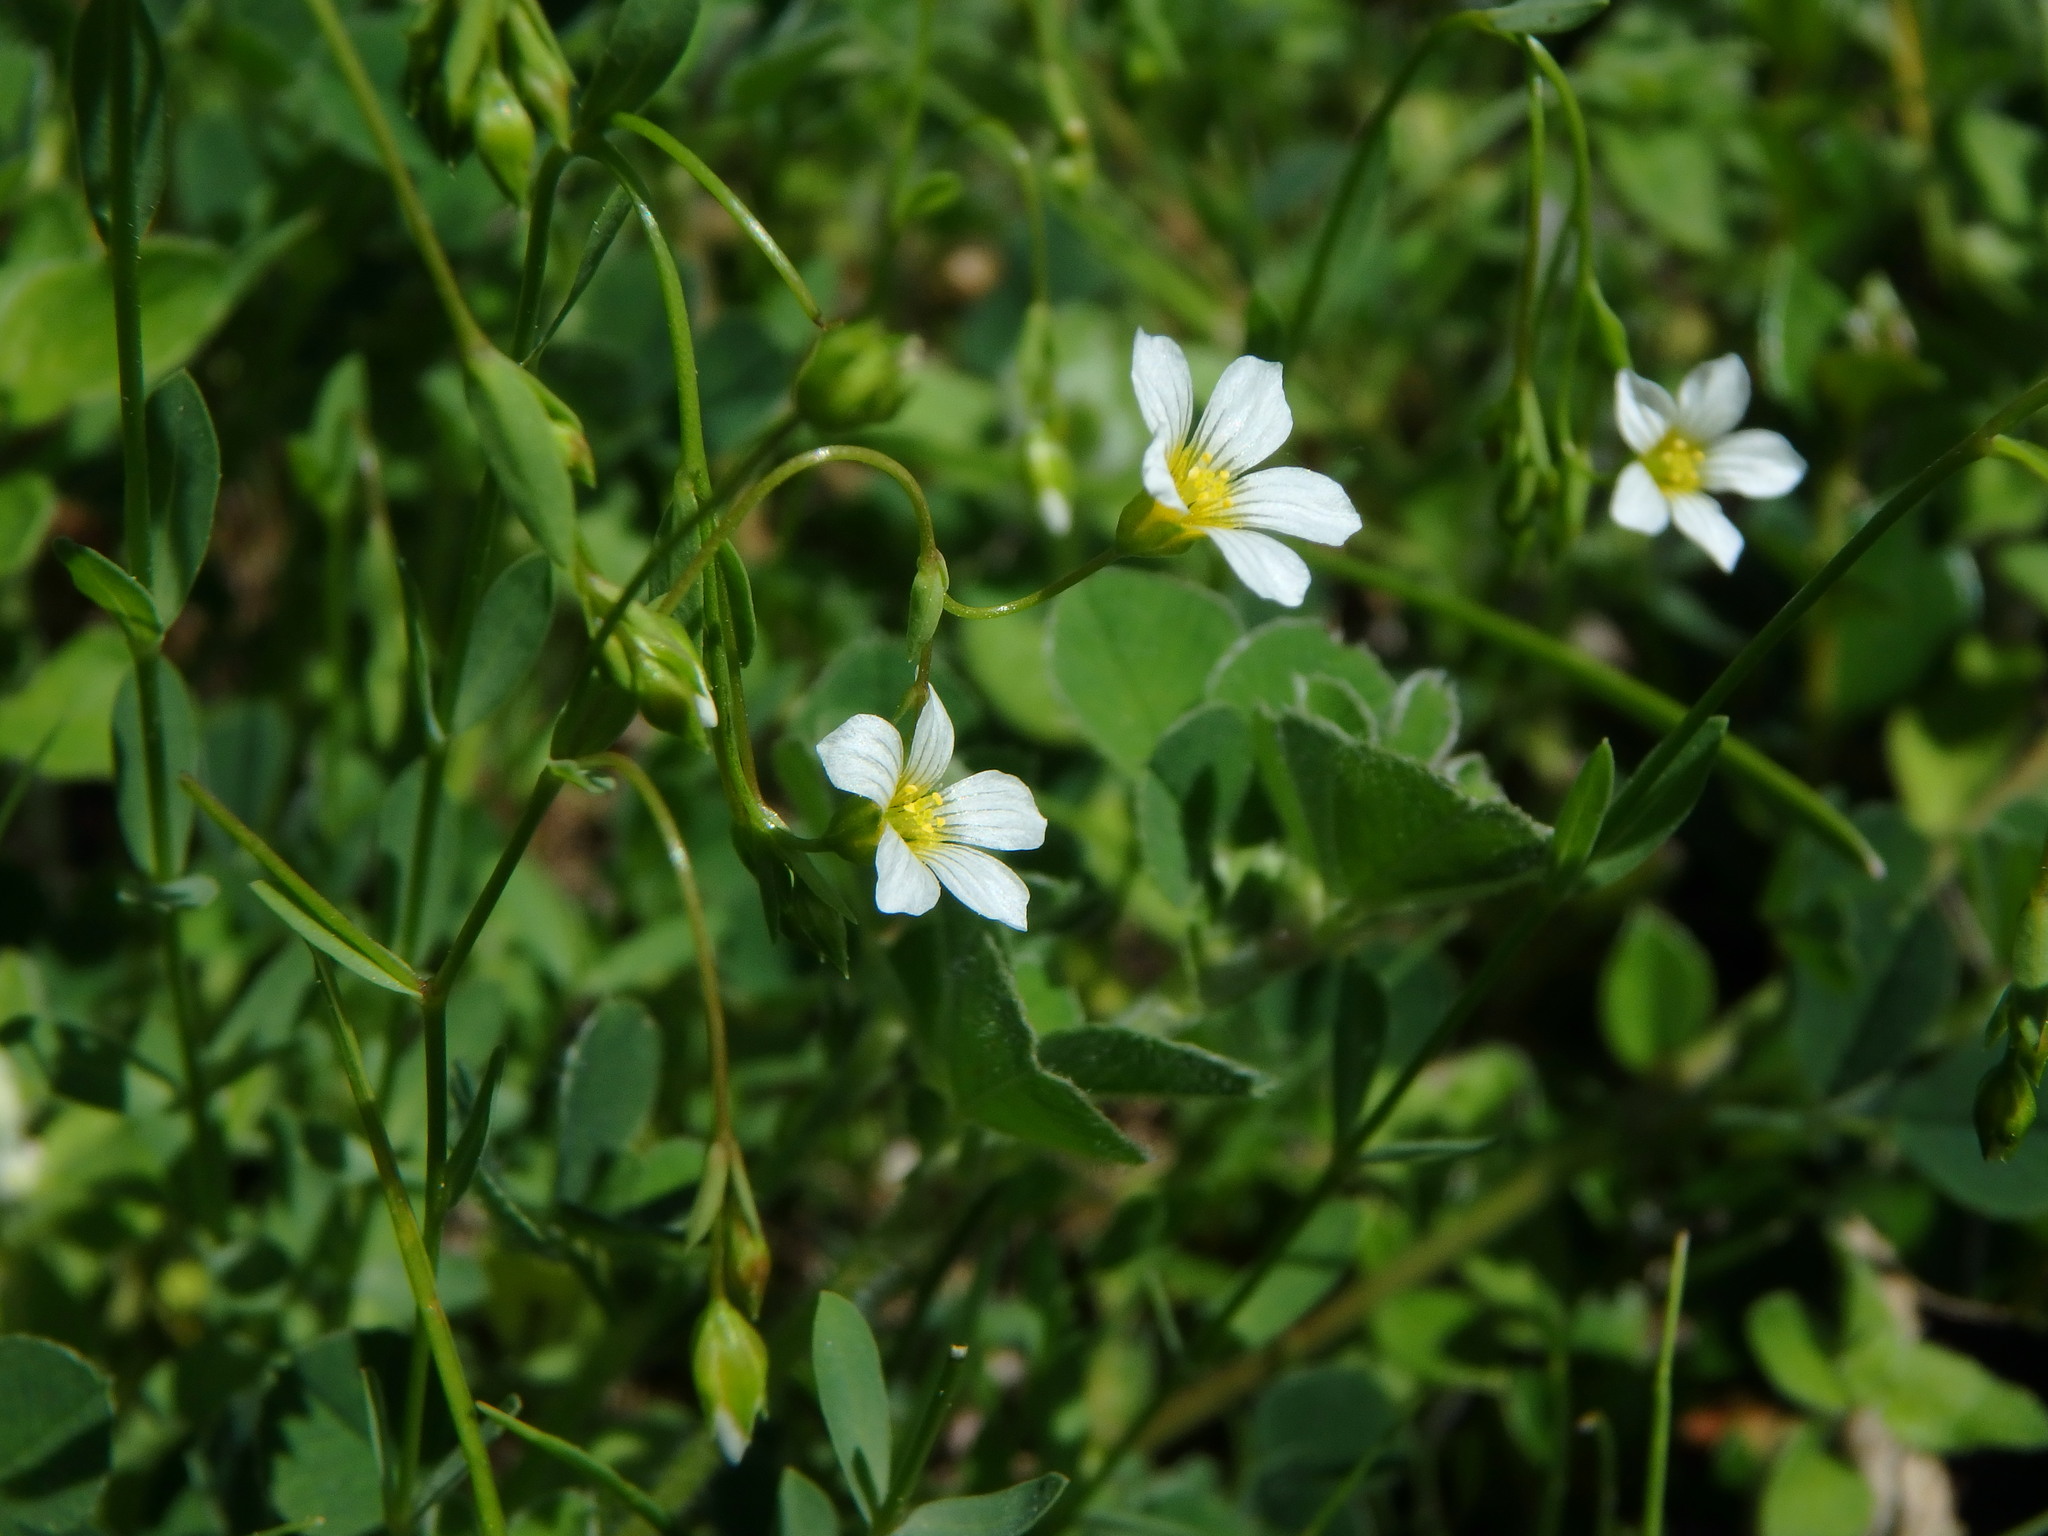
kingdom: Plantae
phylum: Tracheophyta
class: Magnoliopsida
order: Malpighiales
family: Linaceae
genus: Linum
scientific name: Linum catharticum
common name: Fairy flax
